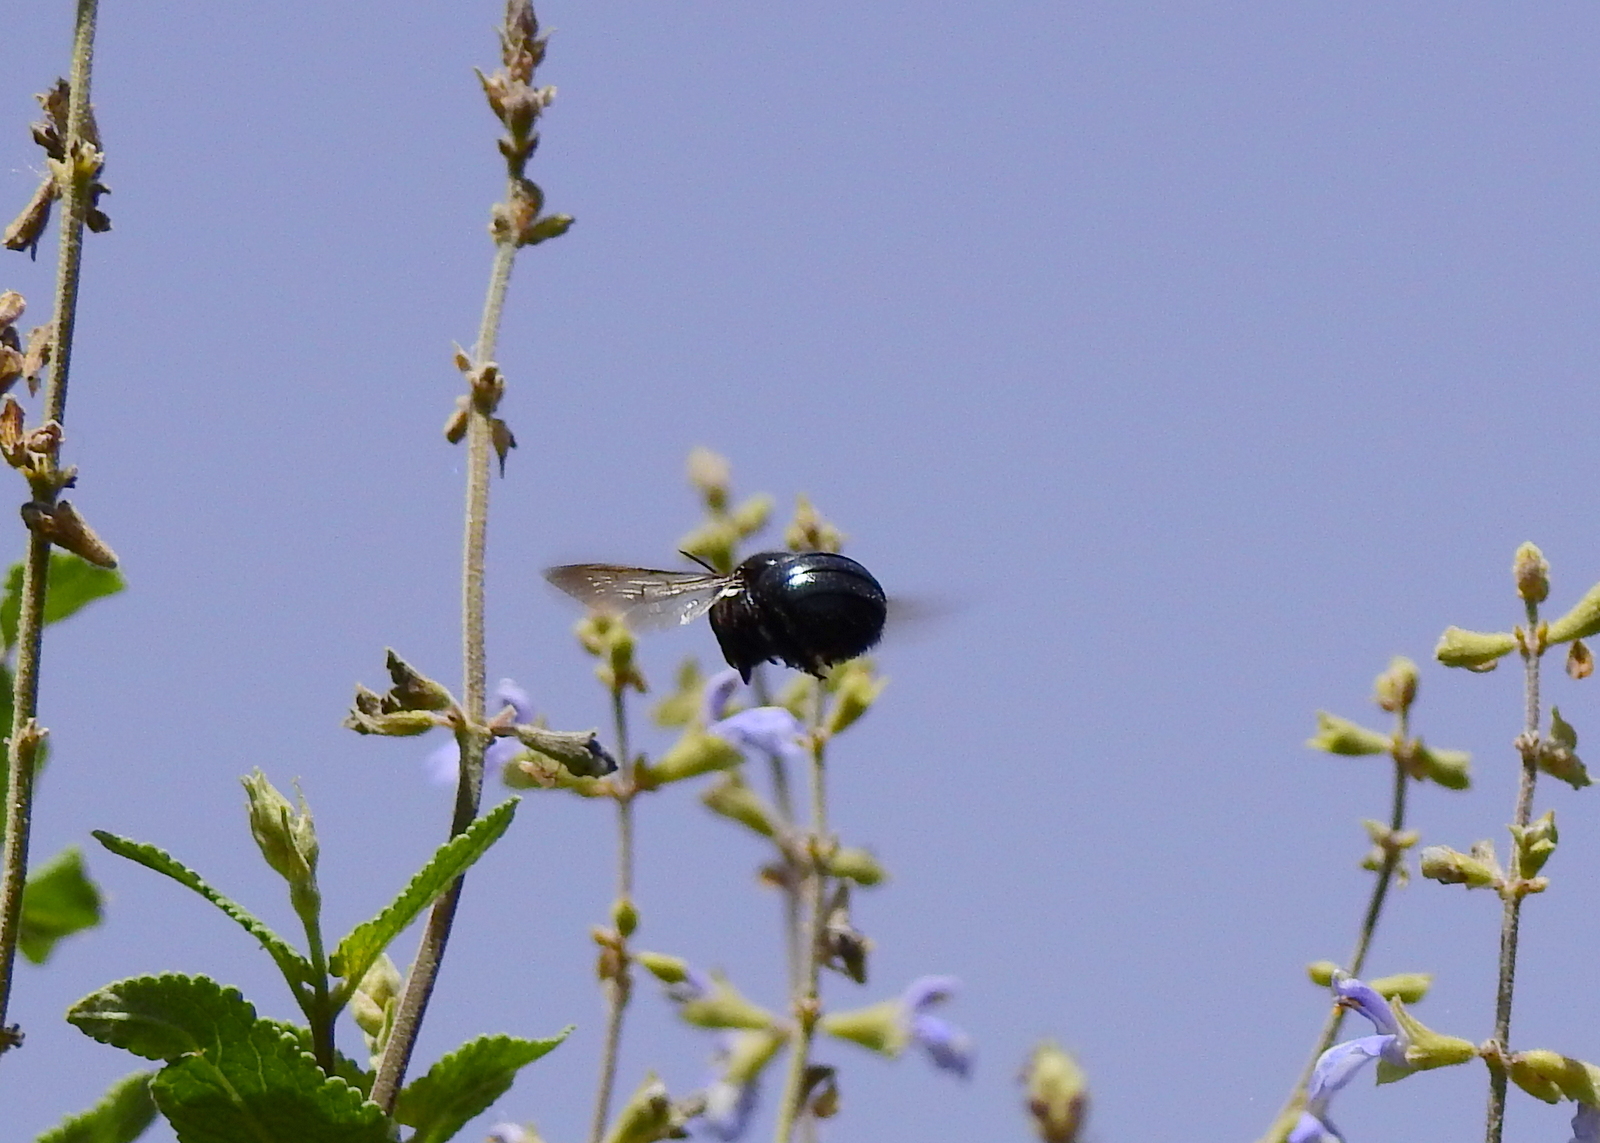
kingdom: Animalia
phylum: Arthropoda
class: Insecta
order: Hymenoptera
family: Apidae
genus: Xylocopa
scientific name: Xylocopa splendidula
